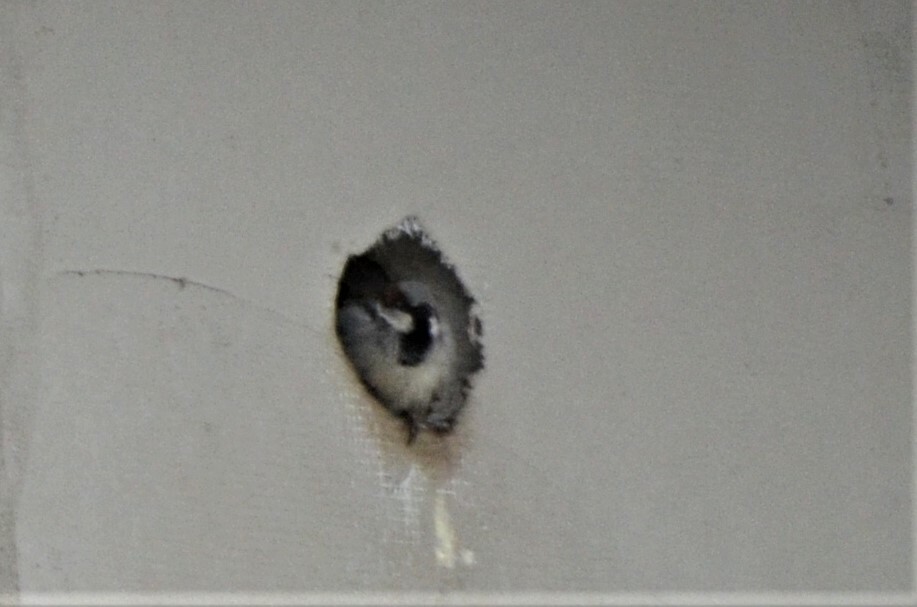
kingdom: Animalia
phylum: Chordata
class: Aves
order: Passeriformes
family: Passeridae
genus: Passer
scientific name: Passer domesticus
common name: House sparrow
